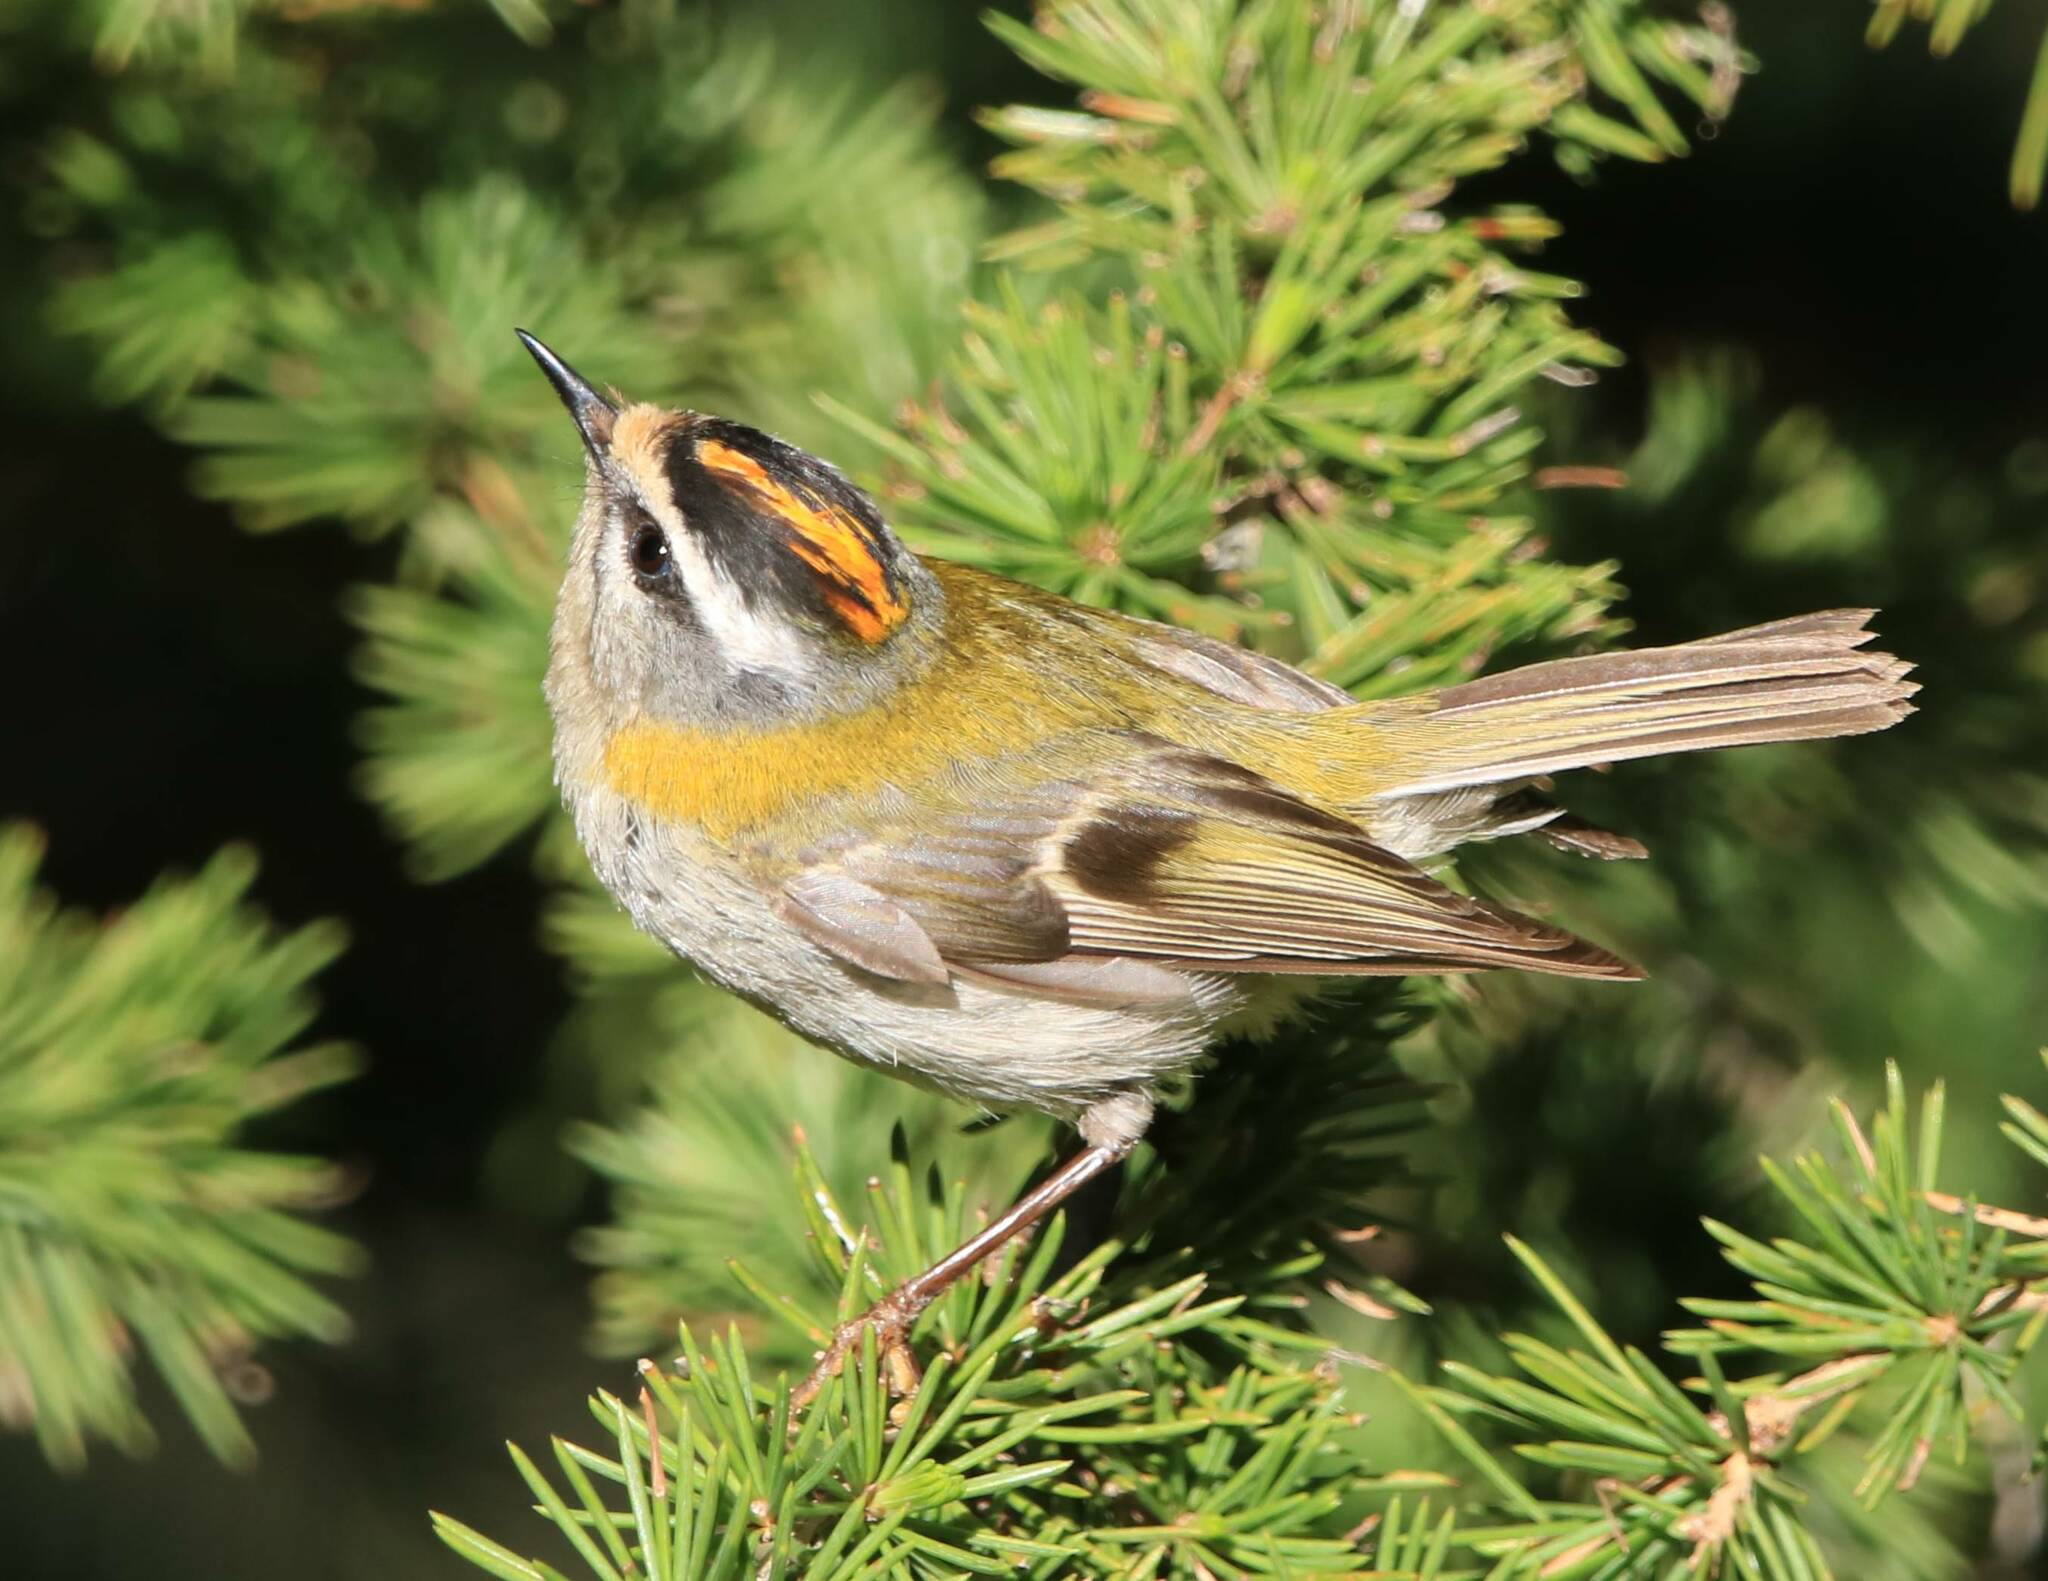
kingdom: Animalia
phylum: Chordata
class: Aves
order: Passeriformes
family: Regulidae
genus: Regulus
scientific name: Regulus ignicapilla
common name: Firecrest
